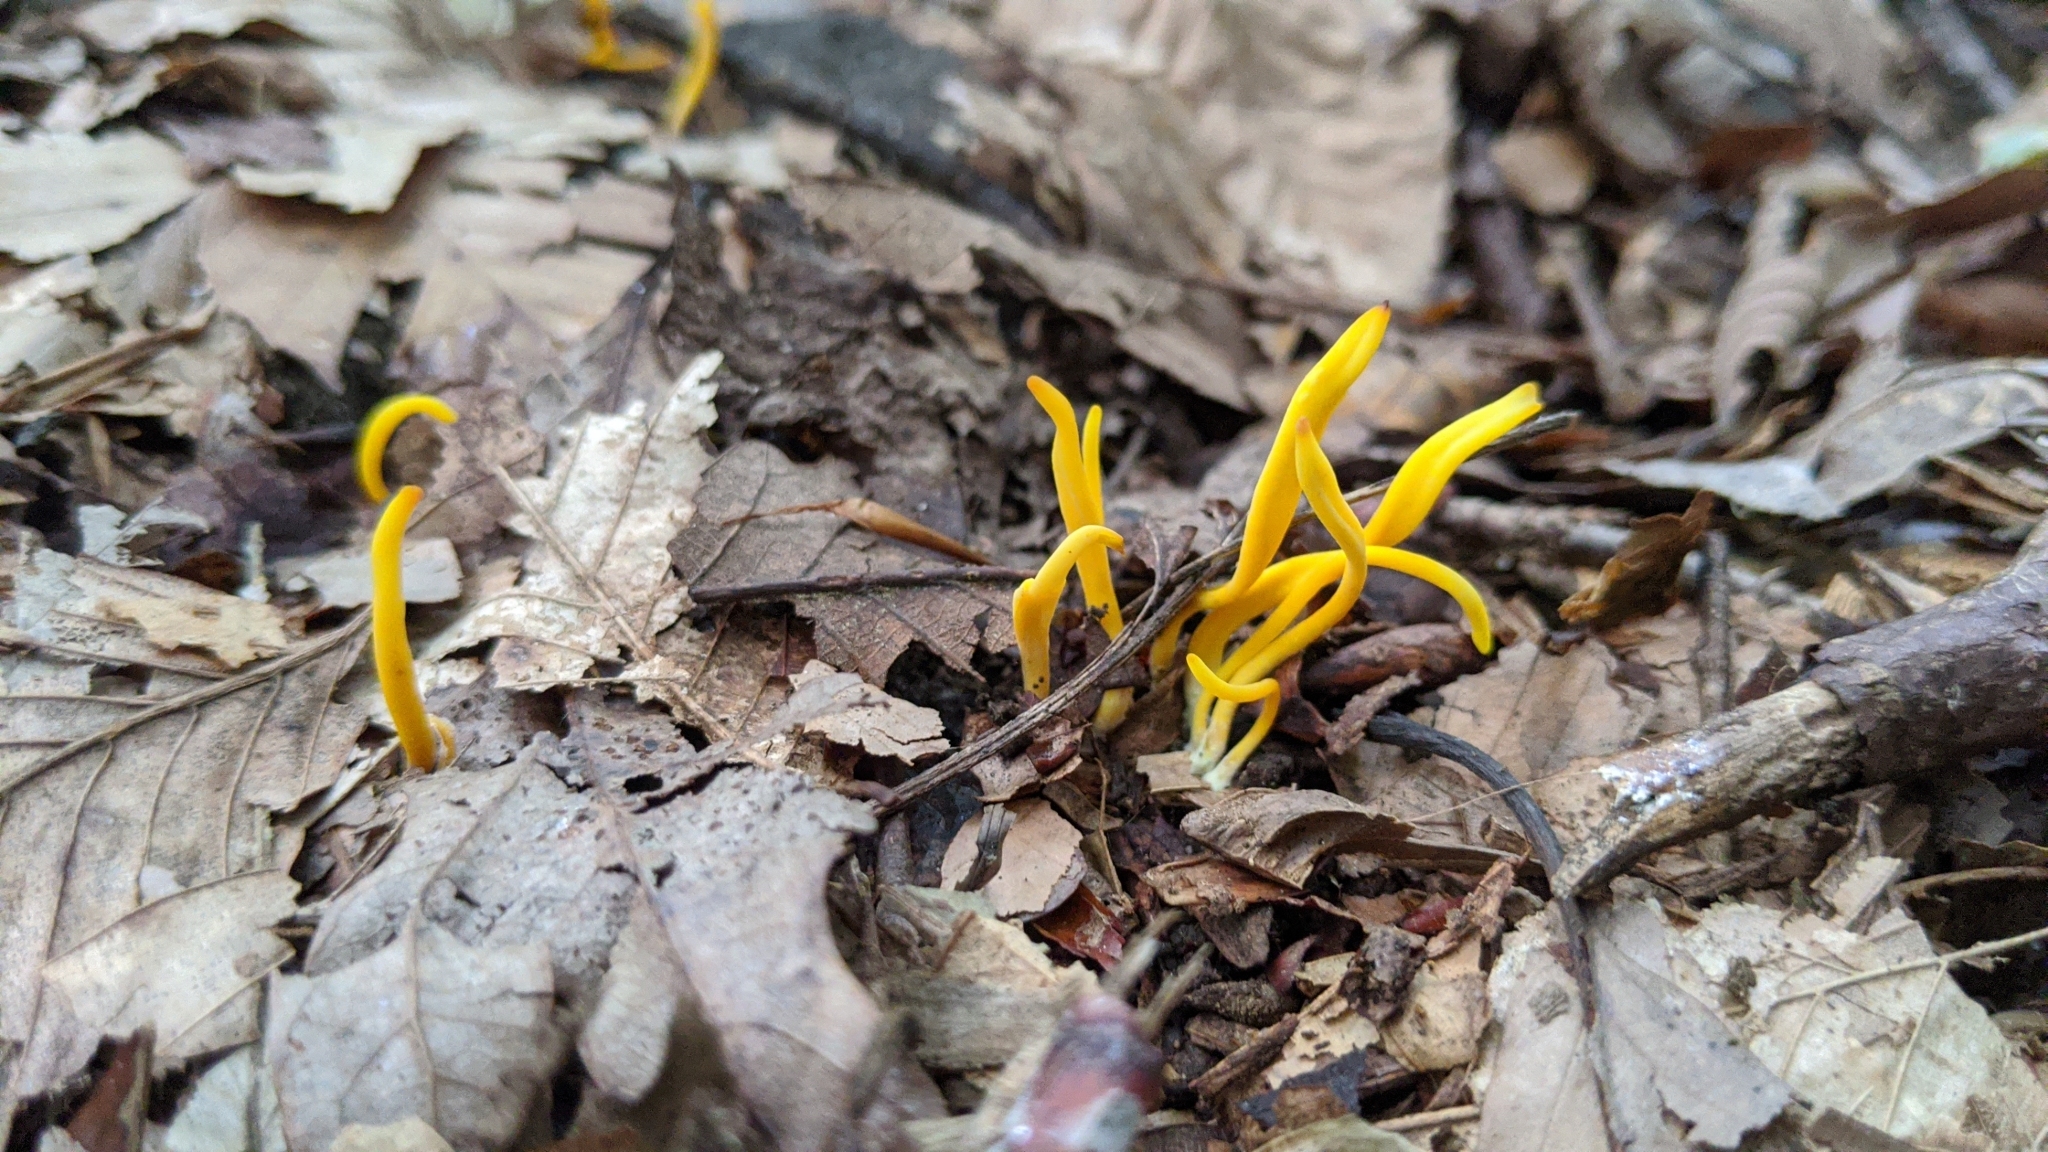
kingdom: Fungi
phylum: Basidiomycota
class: Agaricomycetes
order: Agaricales
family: Clavariaceae
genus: Clavulinopsis
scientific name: Clavulinopsis fusiformis
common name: Golden spindles
